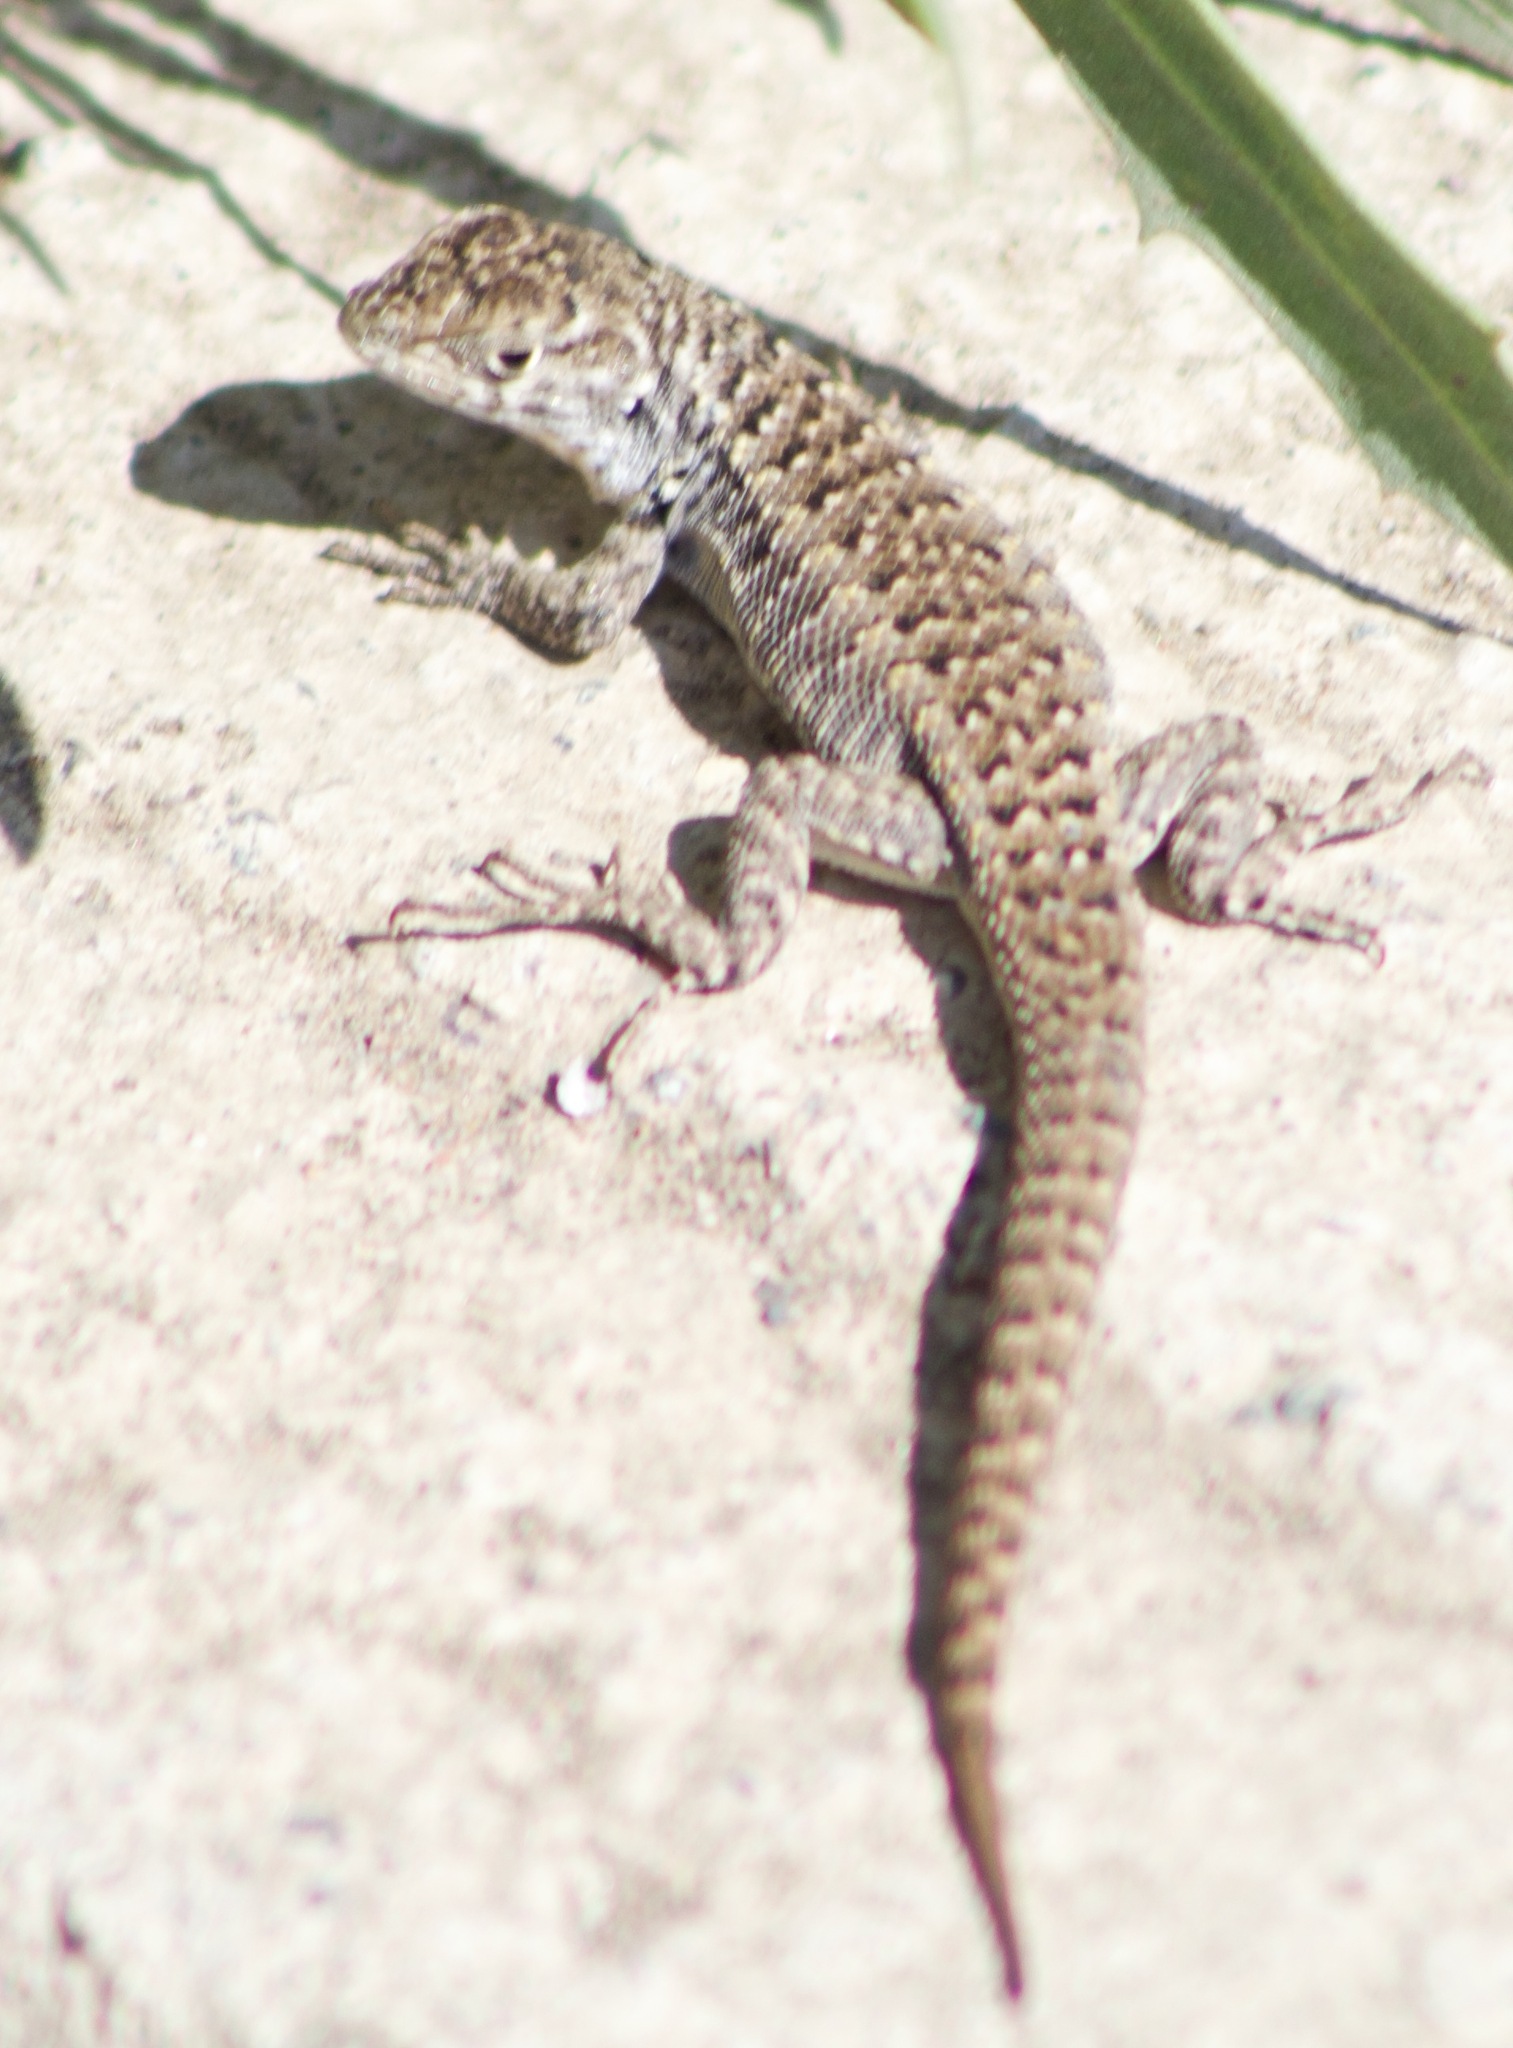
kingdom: Animalia
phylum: Chordata
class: Squamata
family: Liolaemidae
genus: Liolaemus
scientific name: Liolaemus zapallarensis
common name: Zapallaren tree iguana
